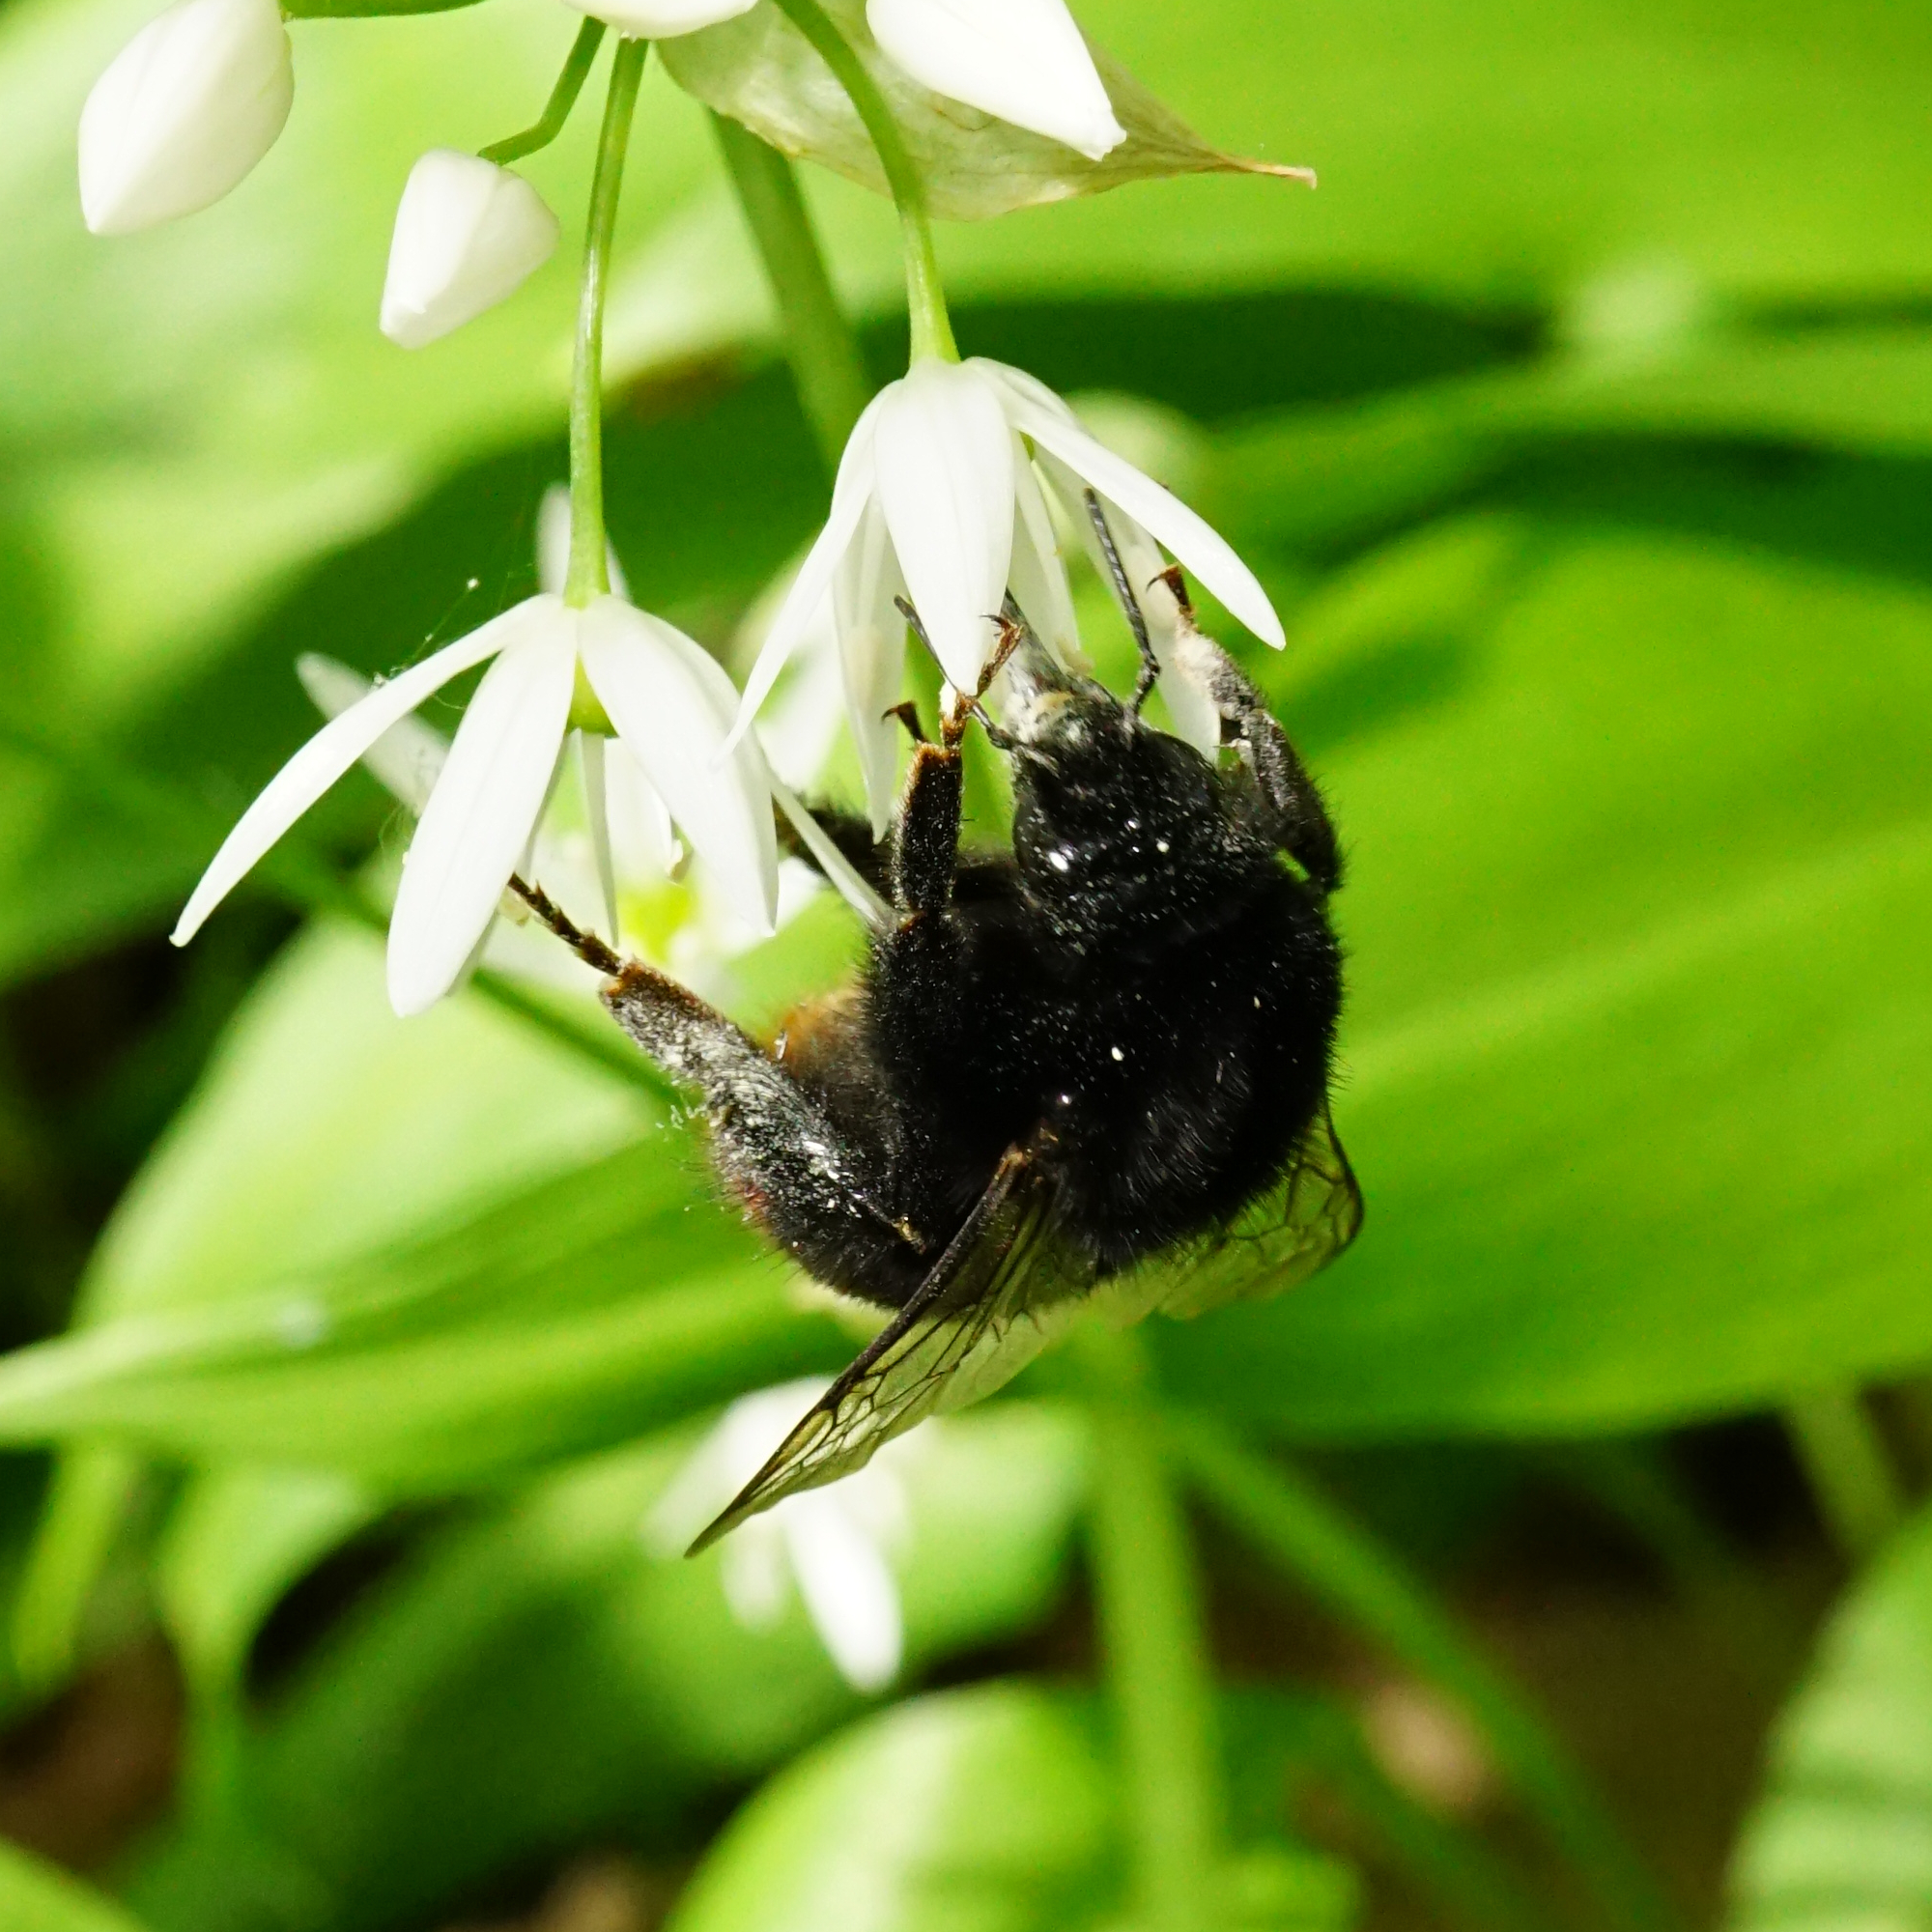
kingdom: Animalia
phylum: Arthropoda
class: Insecta
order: Hymenoptera
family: Apidae
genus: Bombus
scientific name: Bombus lapidarius
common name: Large red-tailed humble-bee
